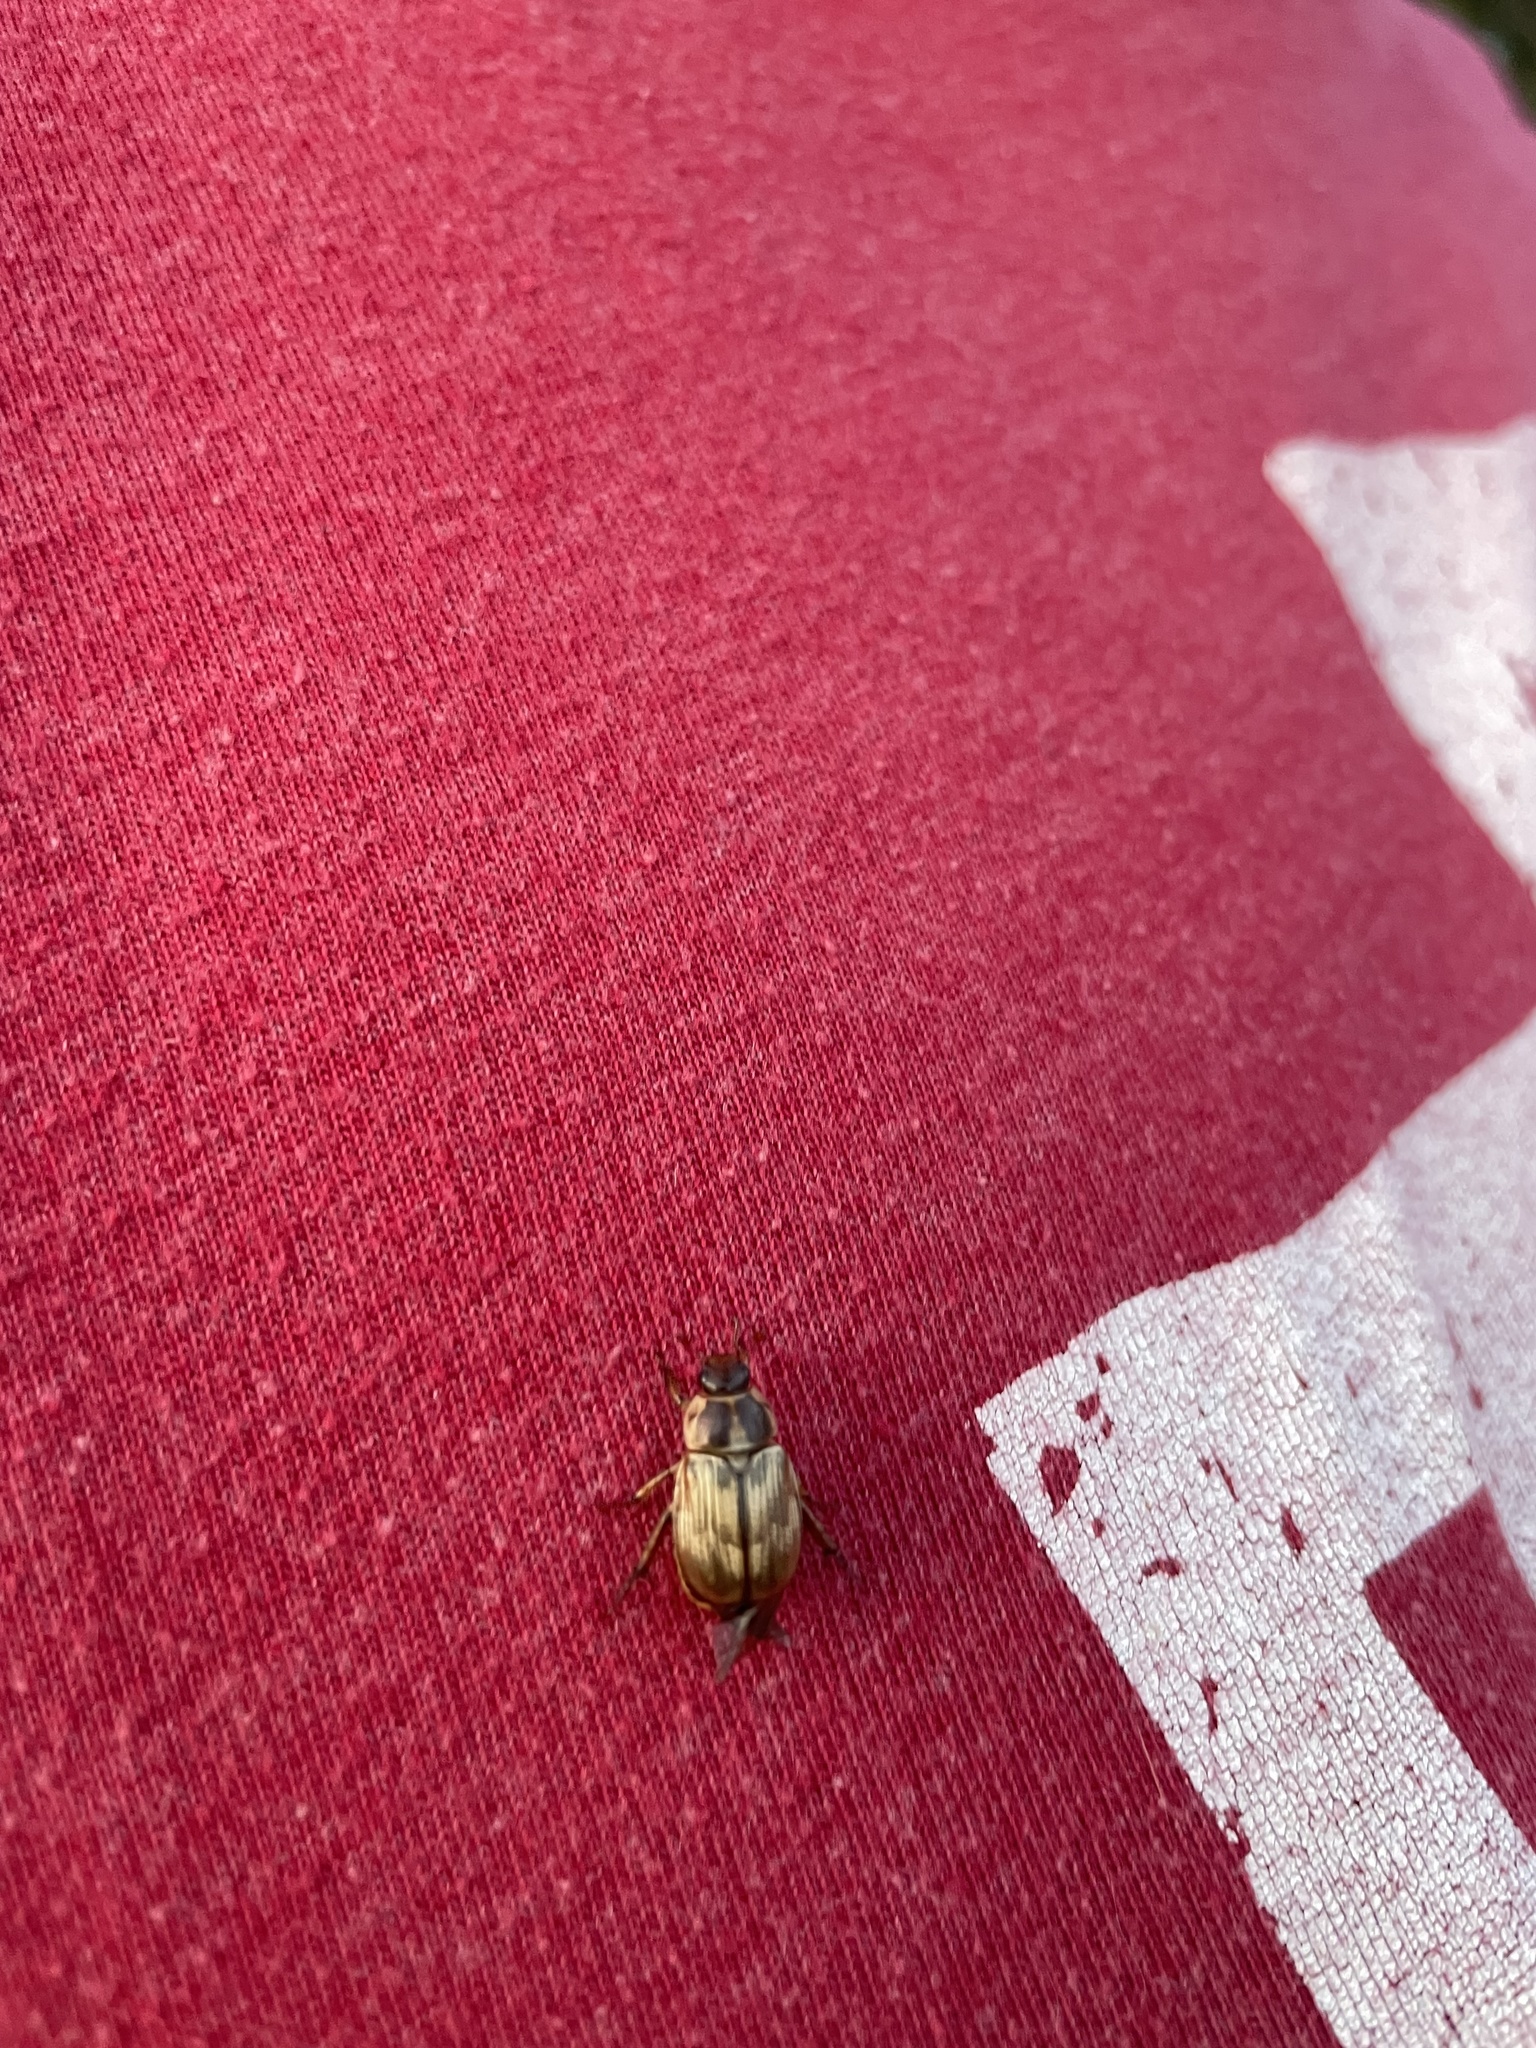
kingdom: Animalia
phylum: Arthropoda
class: Insecta
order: Coleoptera
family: Scarabaeidae
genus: Exomala
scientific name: Exomala orientalis
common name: Oriental beetle
